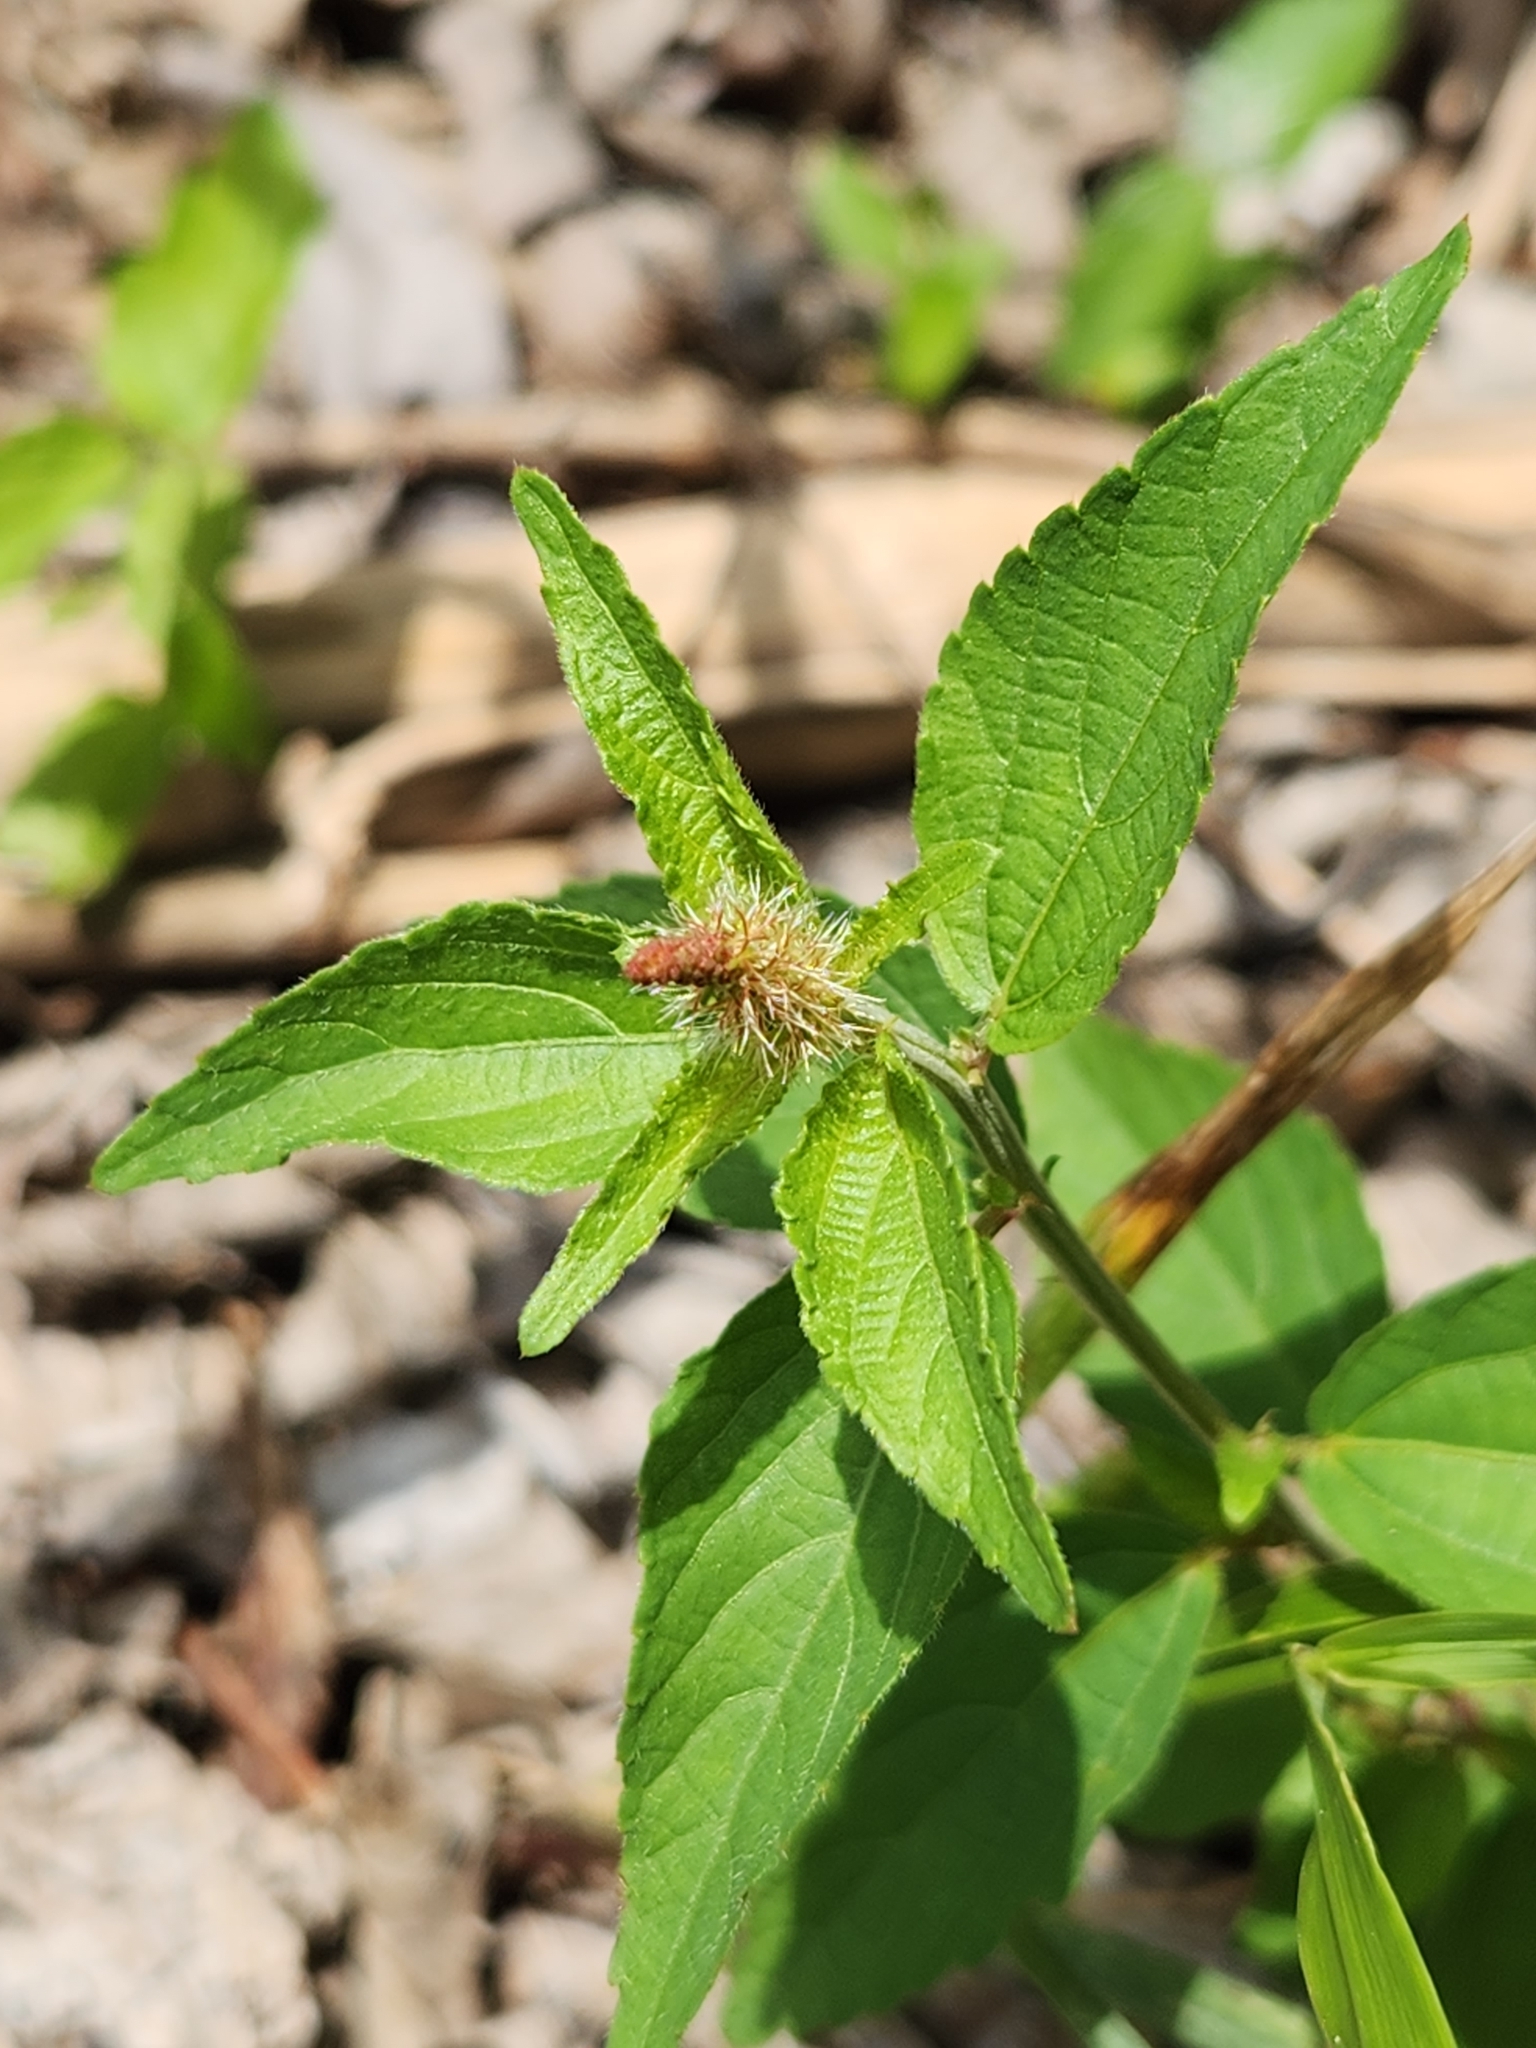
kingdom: Plantae
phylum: Tracheophyta
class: Magnoliopsida
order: Malpighiales
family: Euphorbiaceae
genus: Acalypha
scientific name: Acalypha phleoides
